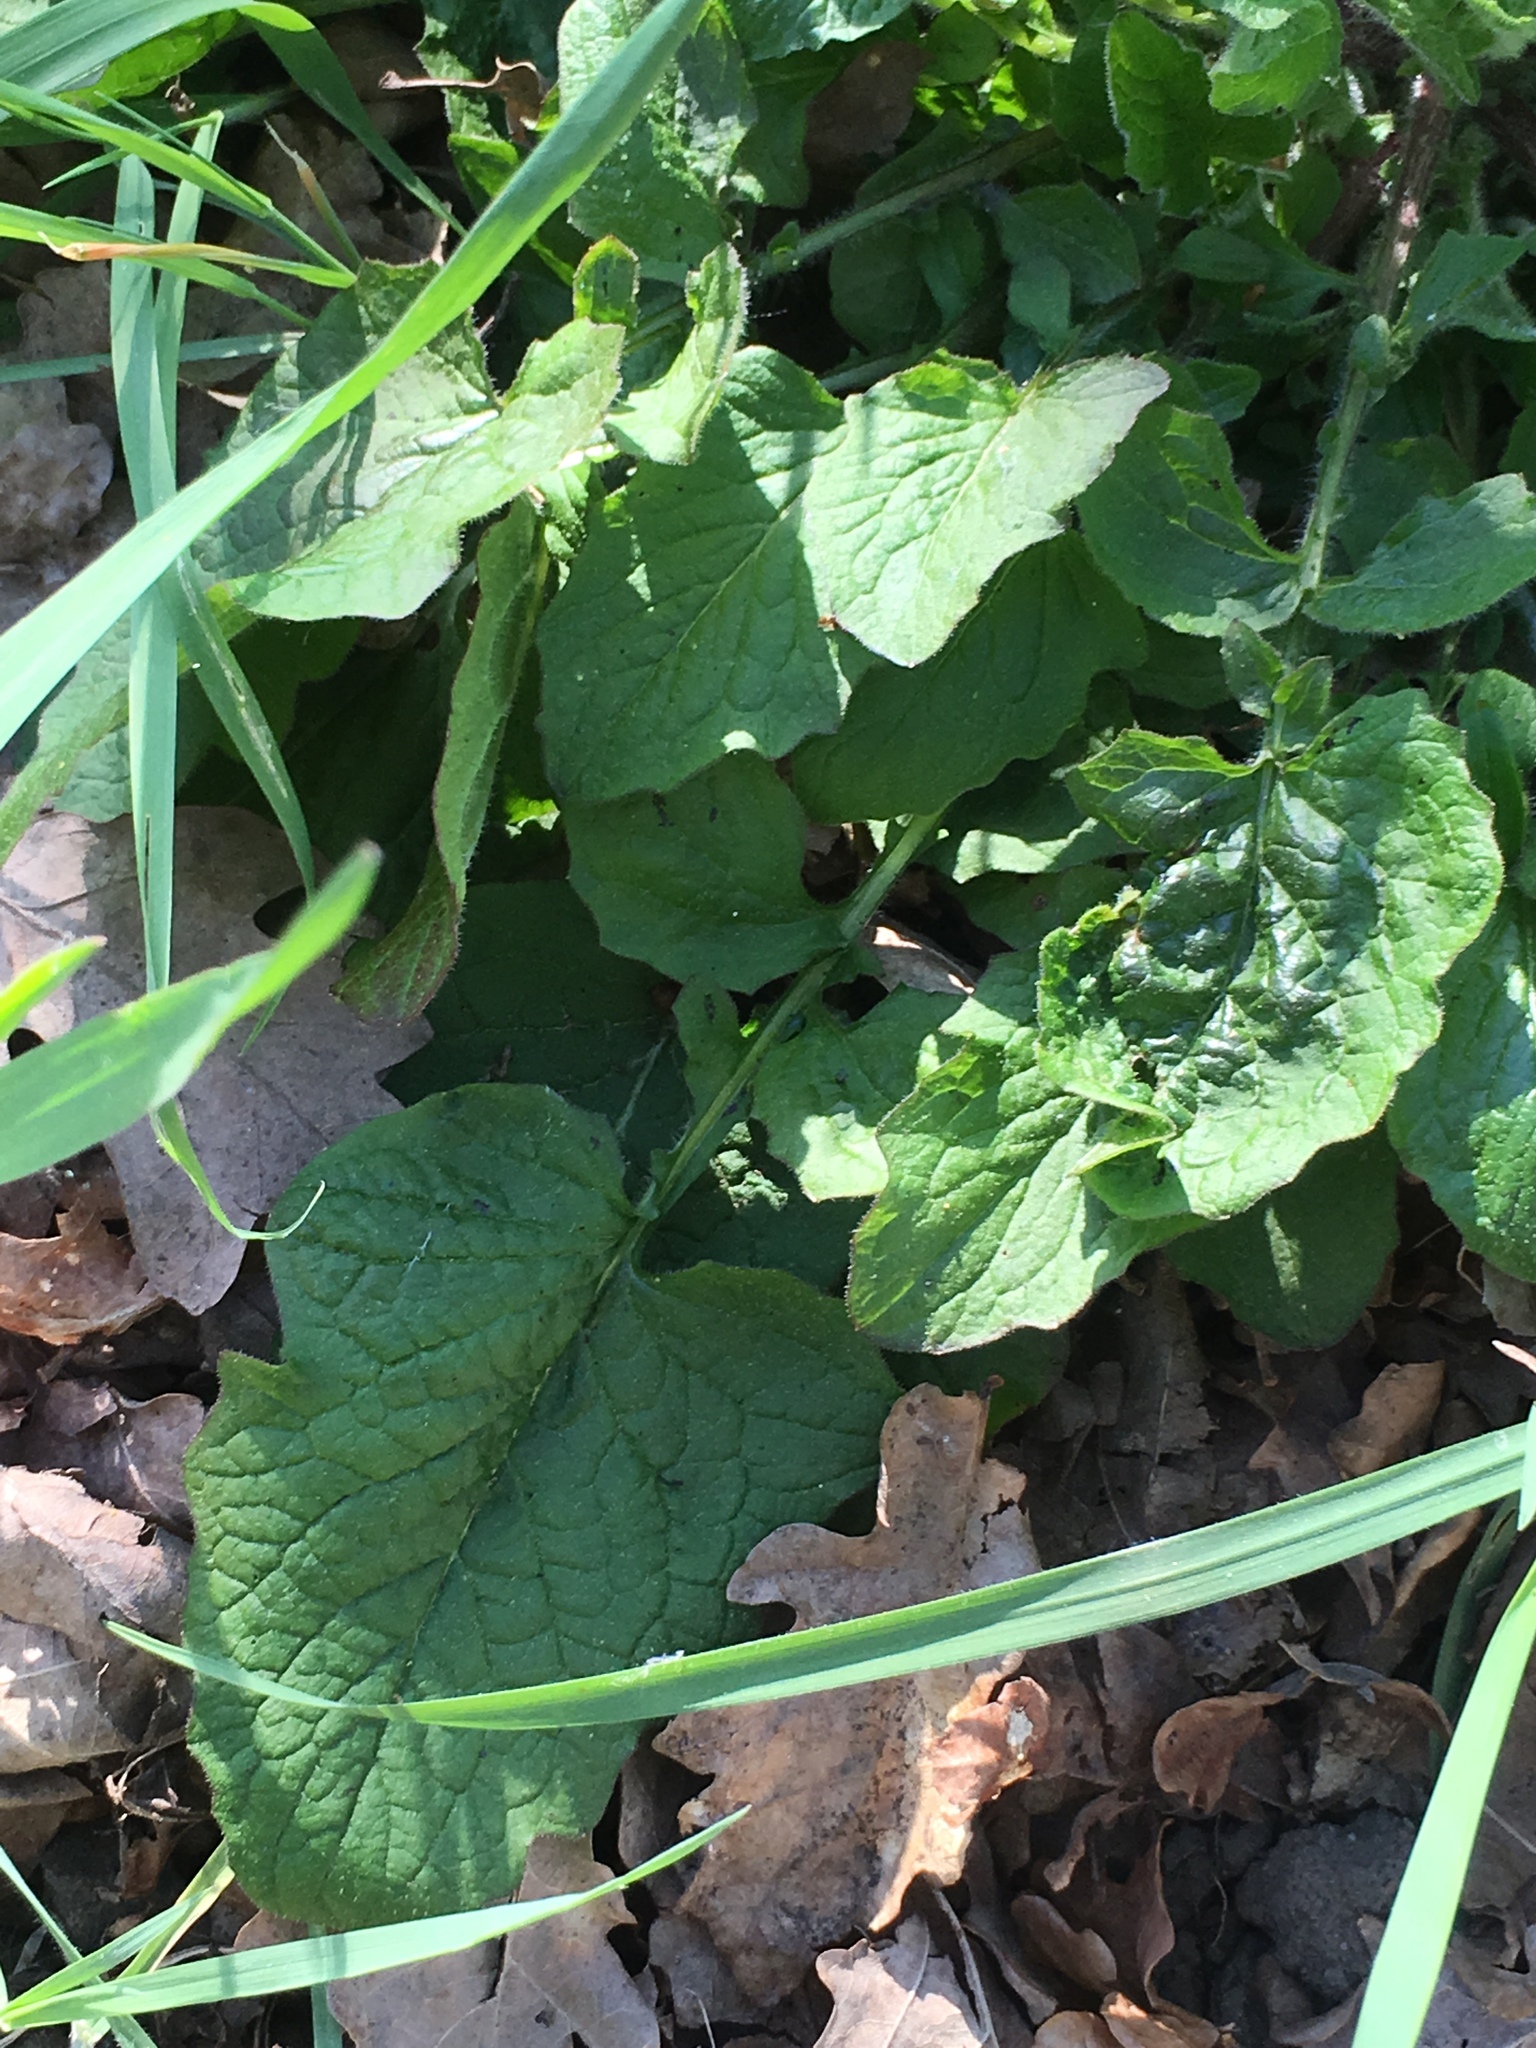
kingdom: Plantae
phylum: Tracheophyta
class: Magnoliopsida
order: Asterales
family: Asteraceae
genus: Lapsana
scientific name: Lapsana communis
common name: Nipplewort
